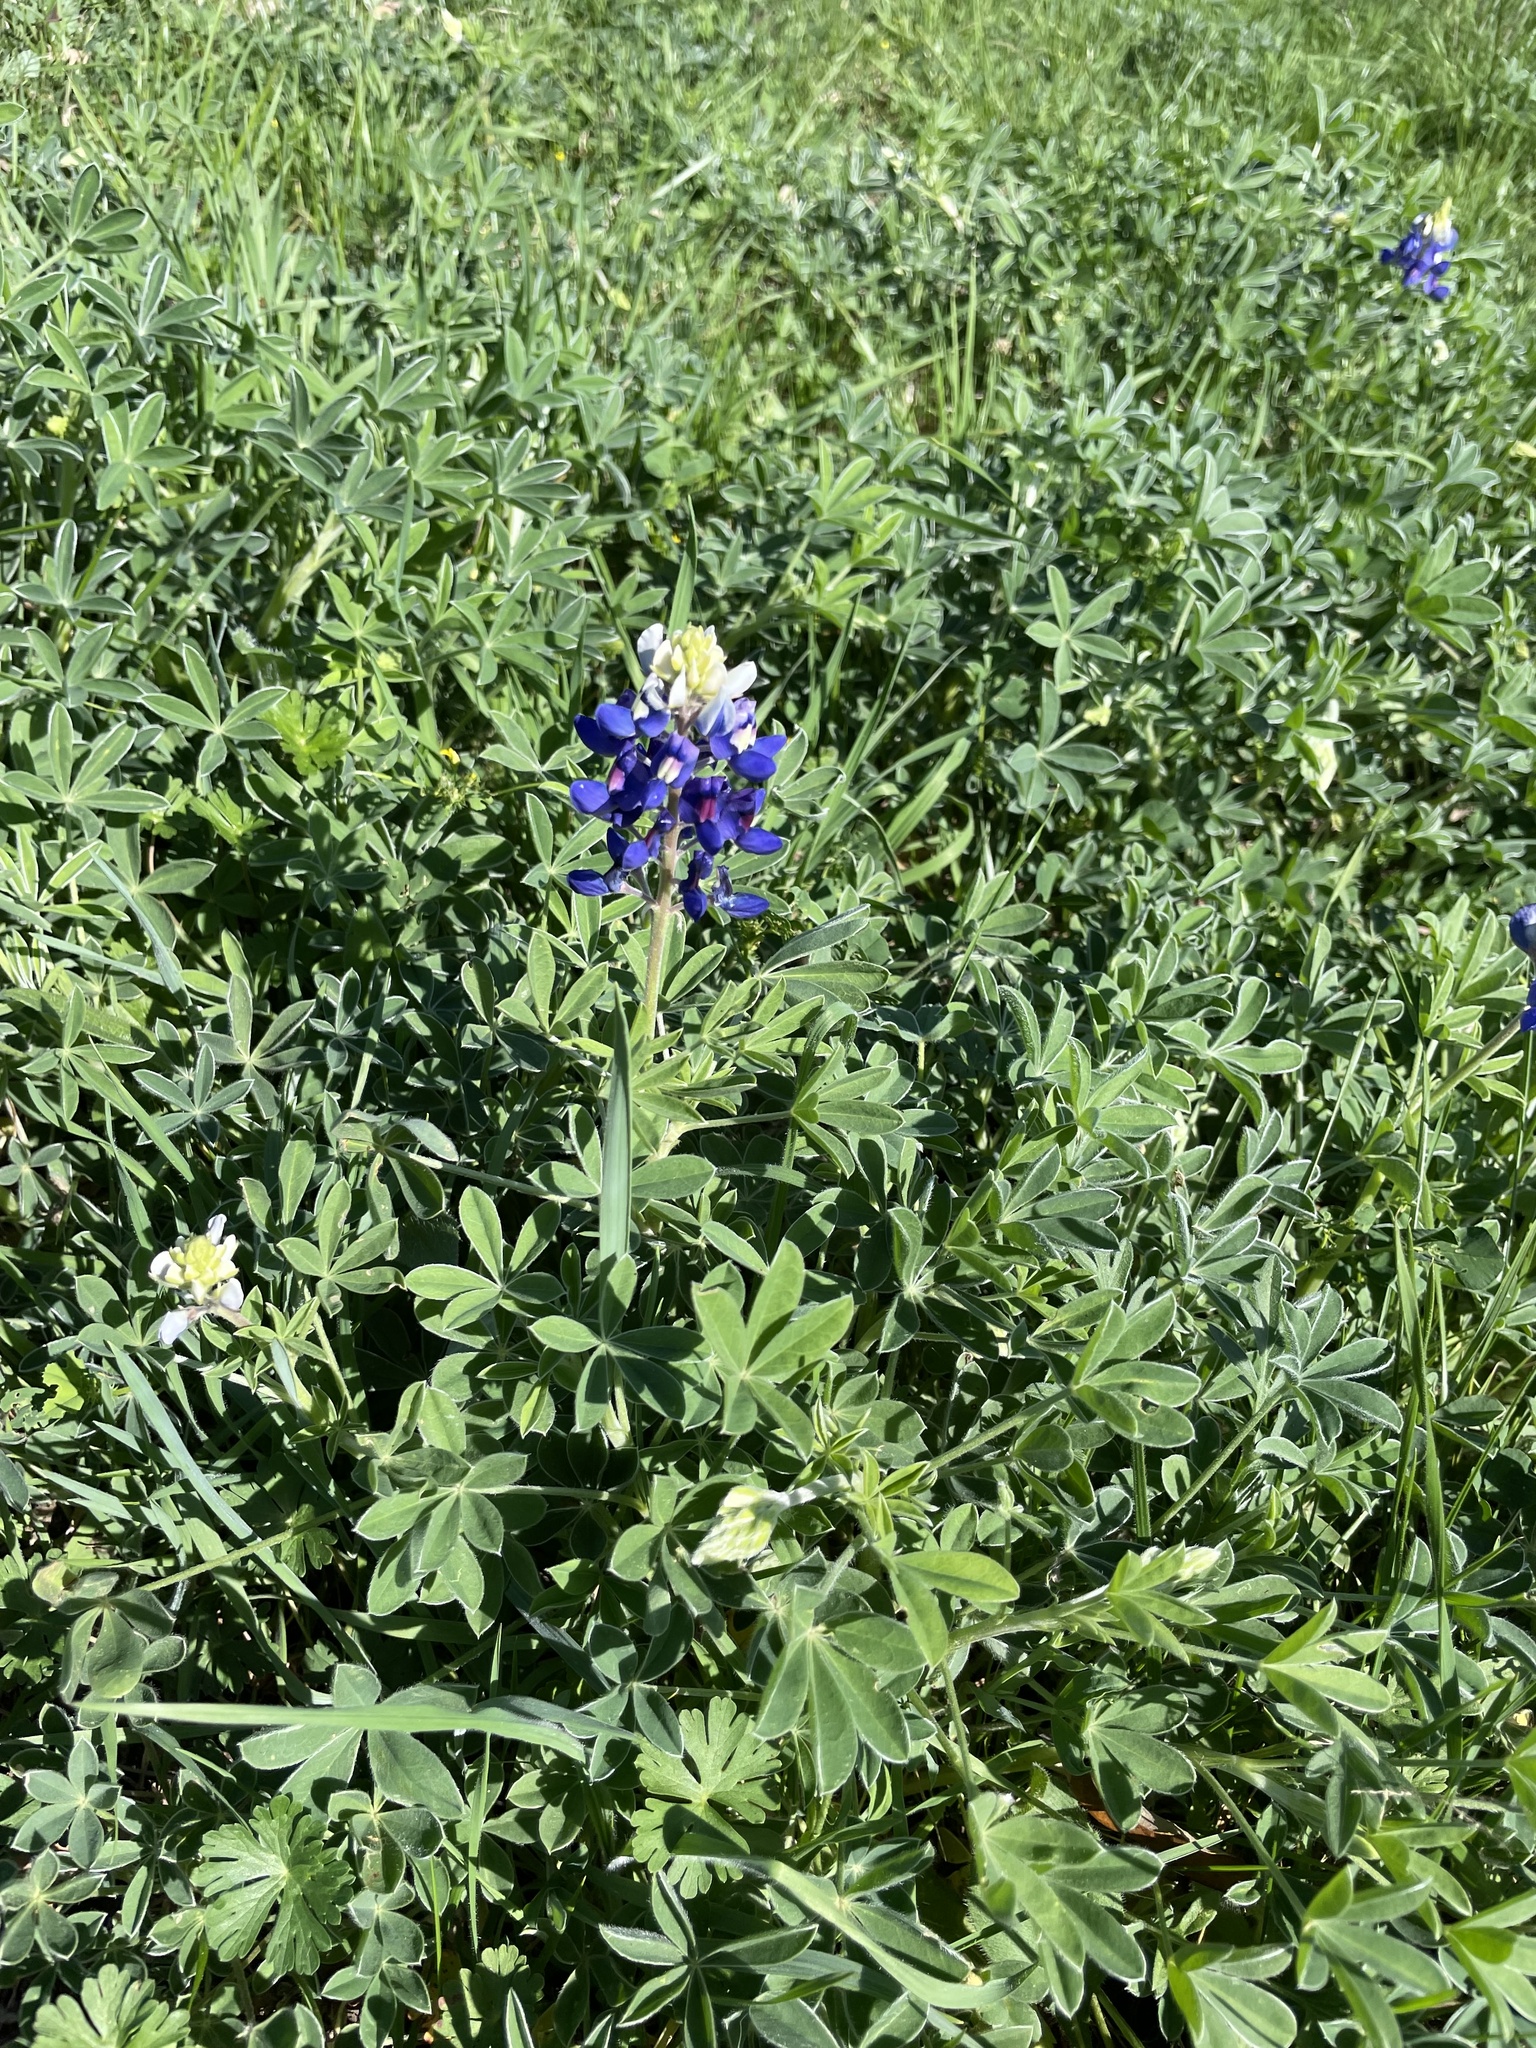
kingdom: Plantae
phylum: Tracheophyta
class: Magnoliopsida
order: Fabales
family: Fabaceae
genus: Lupinus
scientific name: Lupinus texensis
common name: Texas bluebonnet
